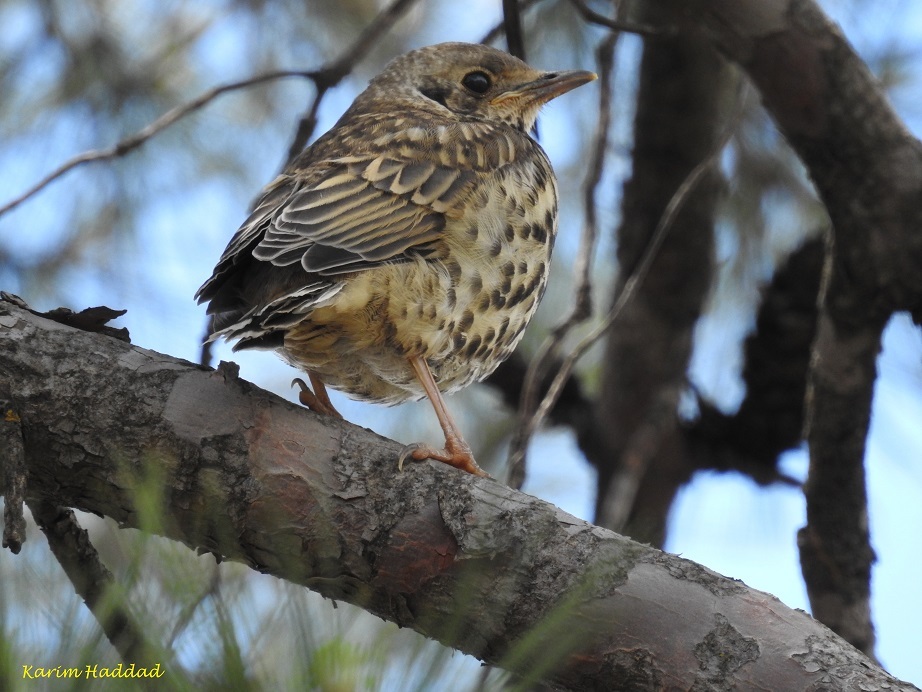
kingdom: Animalia
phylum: Chordata
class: Aves
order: Passeriformes
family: Turdidae
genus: Turdus
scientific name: Turdus viscivorus
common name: Mistle thrush
